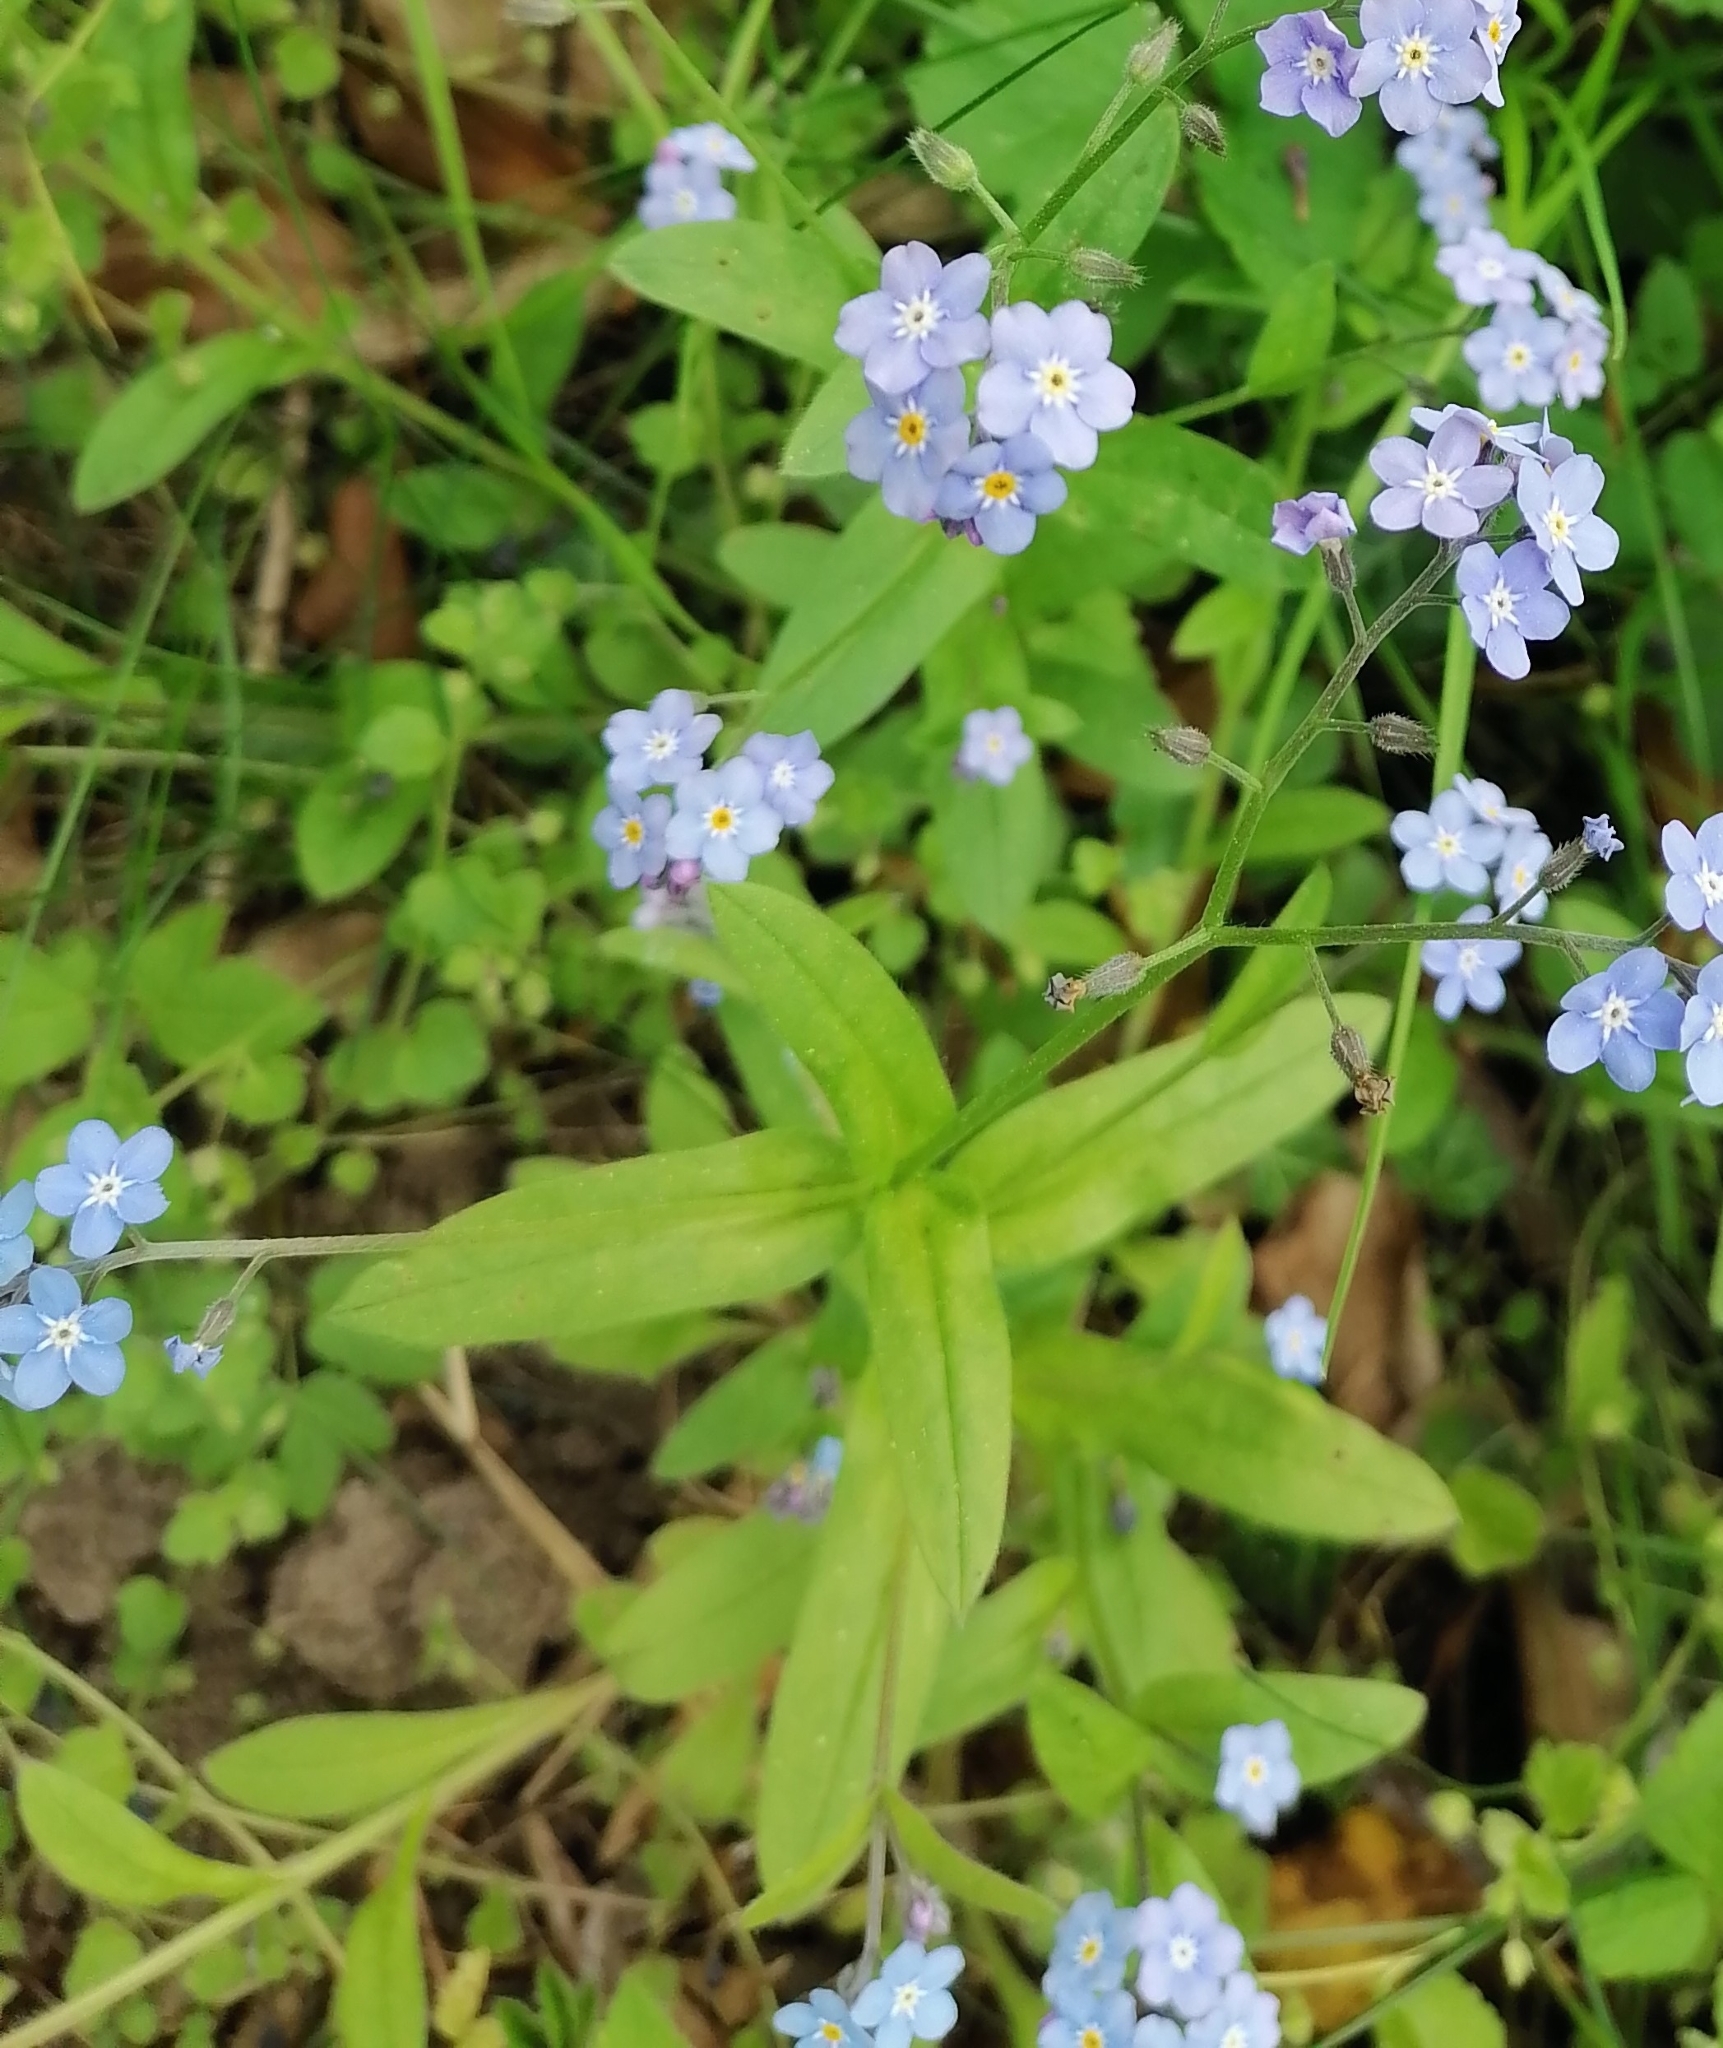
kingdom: Plantae
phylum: Tracheophyta
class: Magnoliopsida
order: Boraginales
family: Boraginaceae
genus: Myosotis
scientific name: Myosotis sylvatica
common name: Wood forget-me-not
